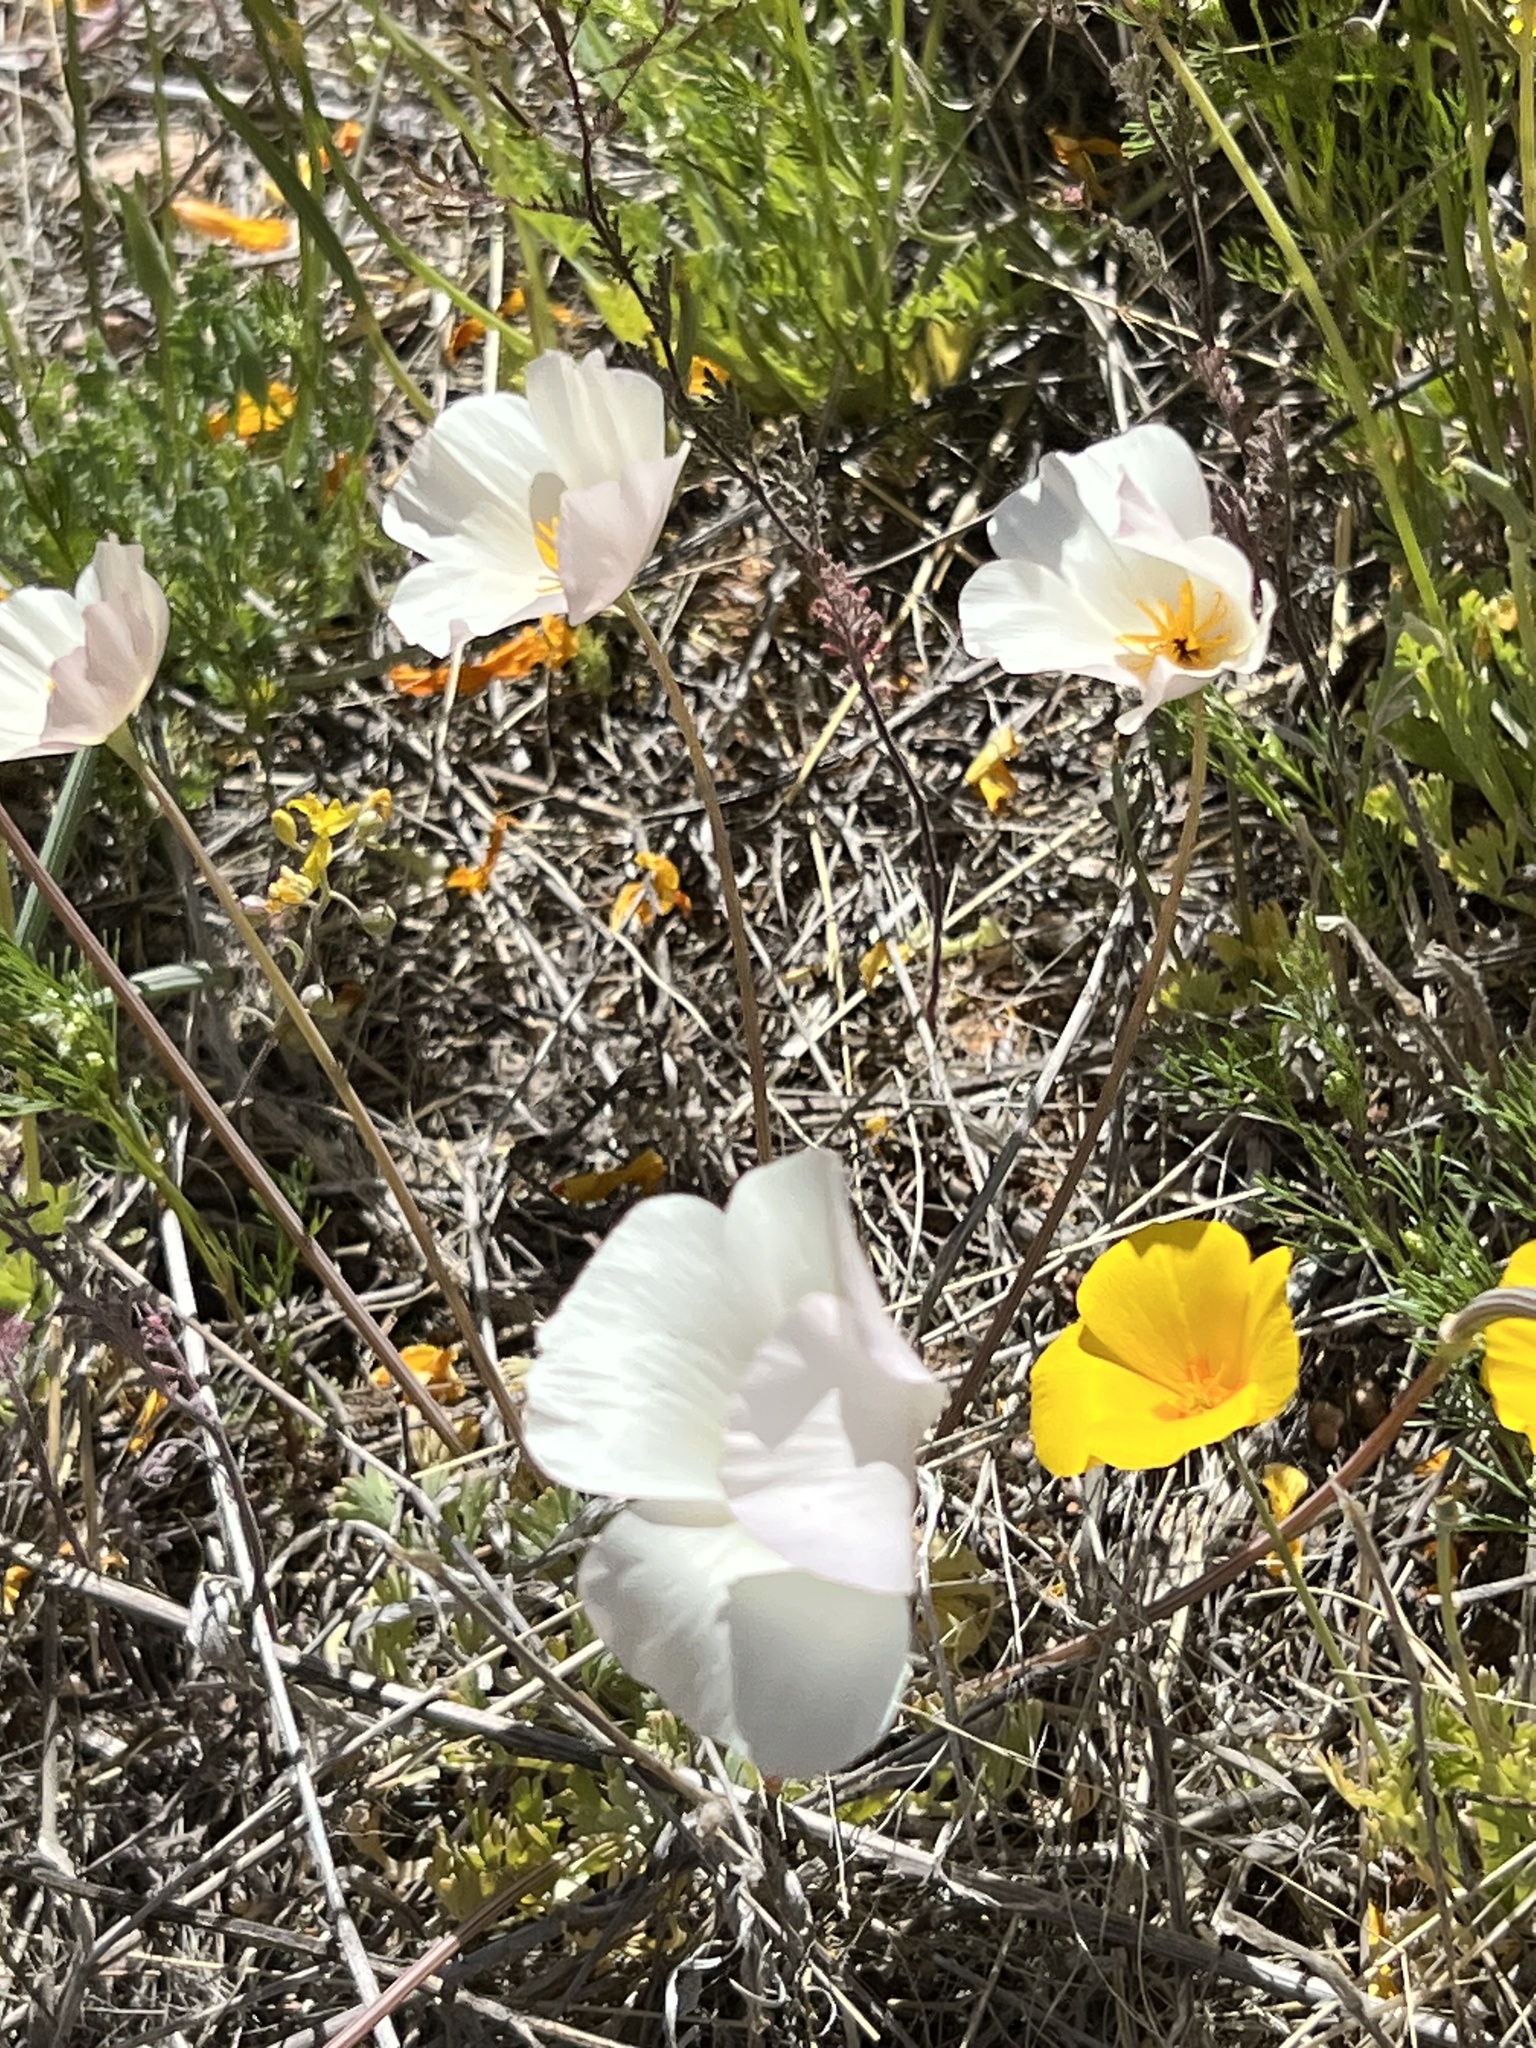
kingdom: Plantae
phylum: Tracheophyta
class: Magnoliopsida
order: Ranunculales
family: Papaveraceae
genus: Eschscholzia
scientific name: Eschscholzia californica
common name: California poppy
